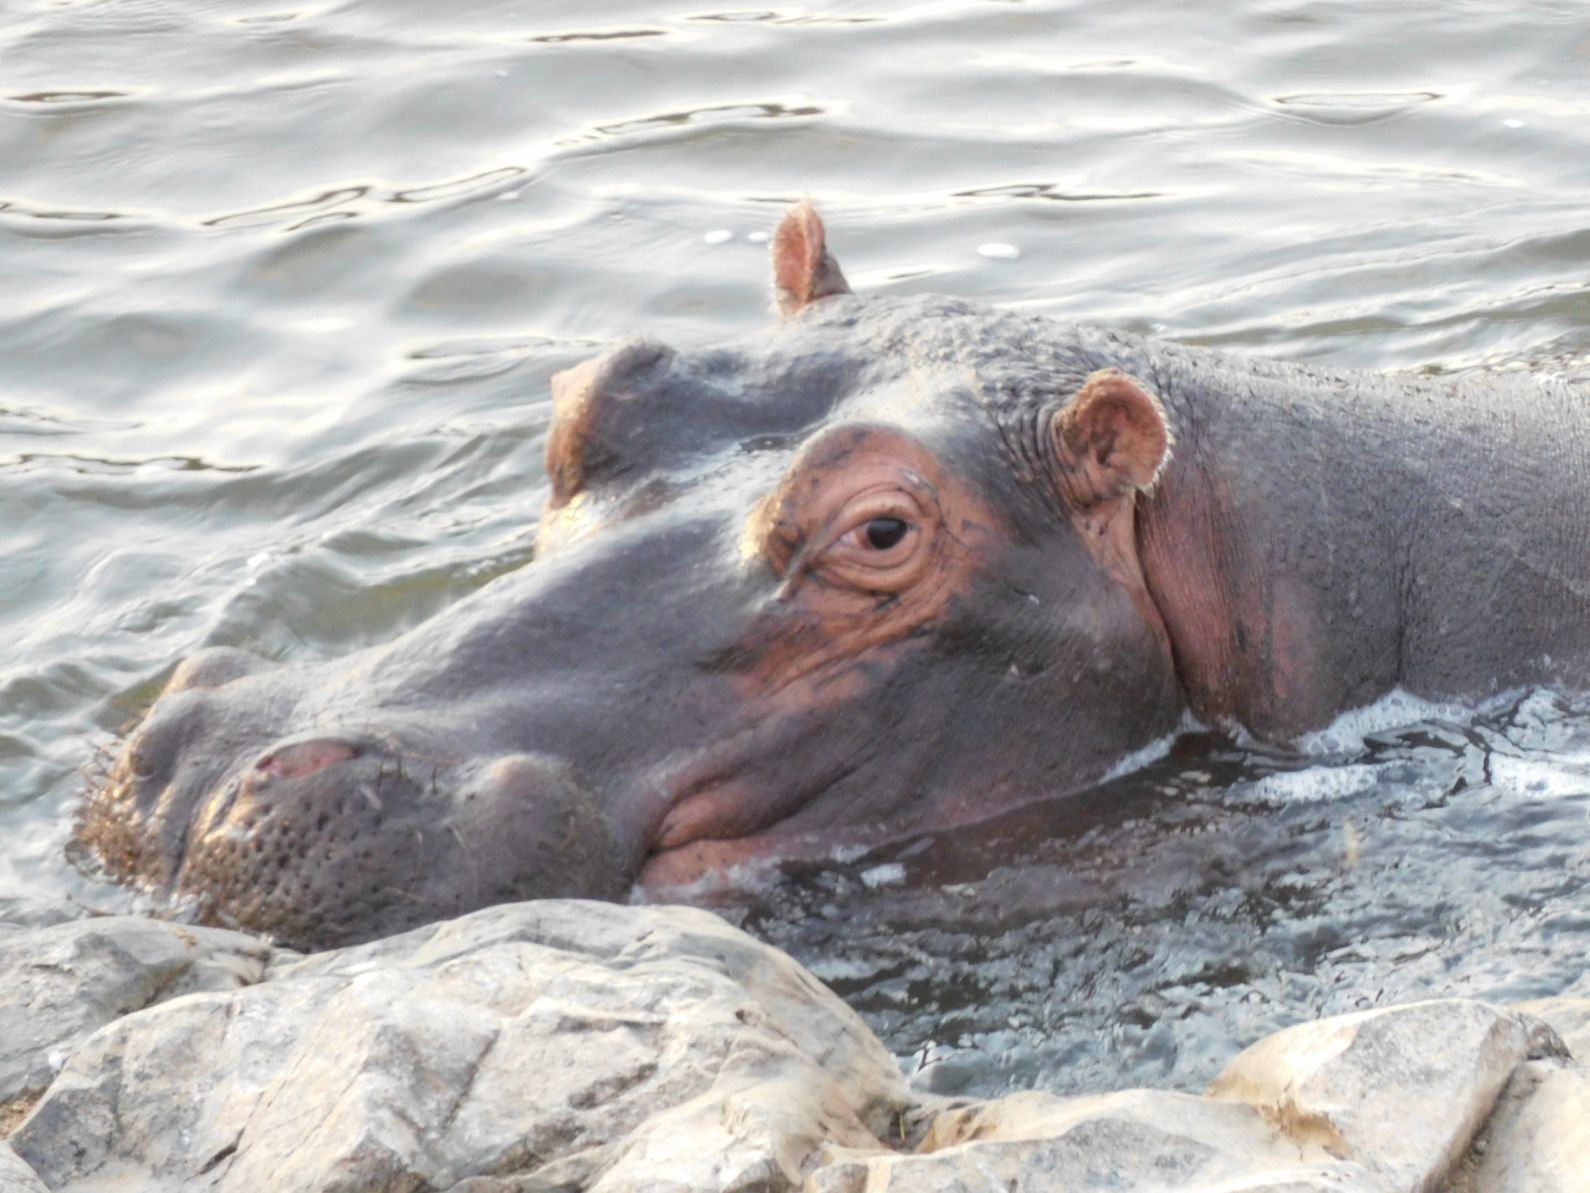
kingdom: Animalia
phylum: Chordata
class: Mammalia
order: Artiodactyla
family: Hippopotamidae
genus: Hippopotamus
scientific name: Hippopotamus amphibius
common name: Common hippopotamus
